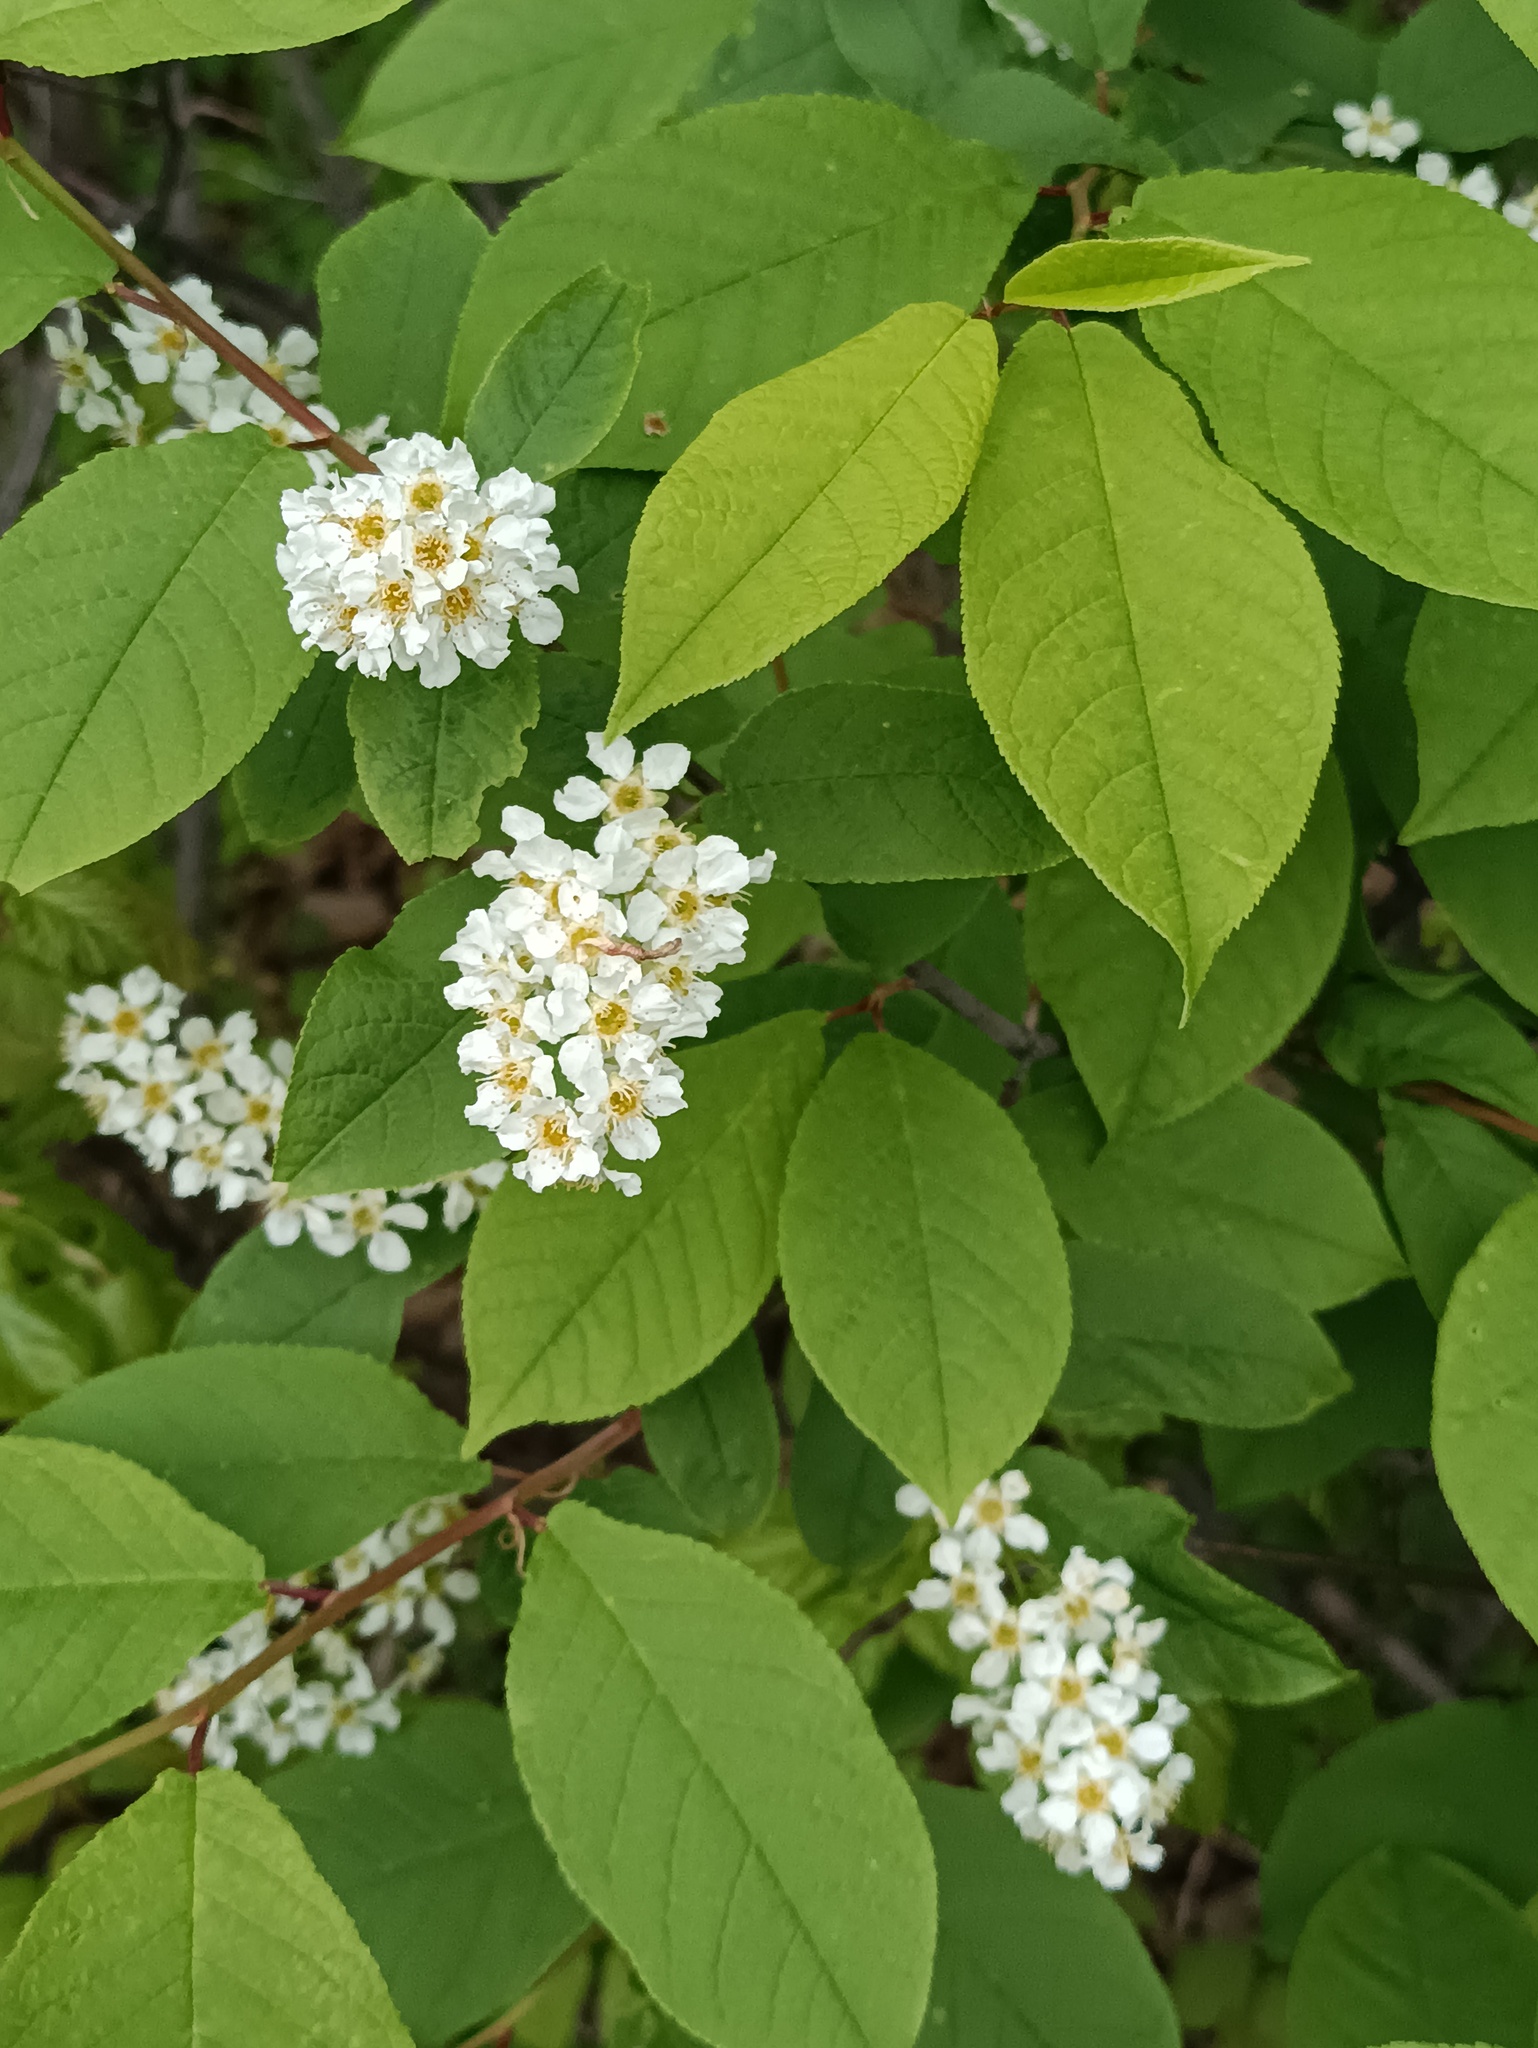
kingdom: Plantae
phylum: Tracheophyta
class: Magnoliopsida
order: Rosales
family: Rosaceae
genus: Prunus
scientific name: Prunus padus
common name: Bird cherry
